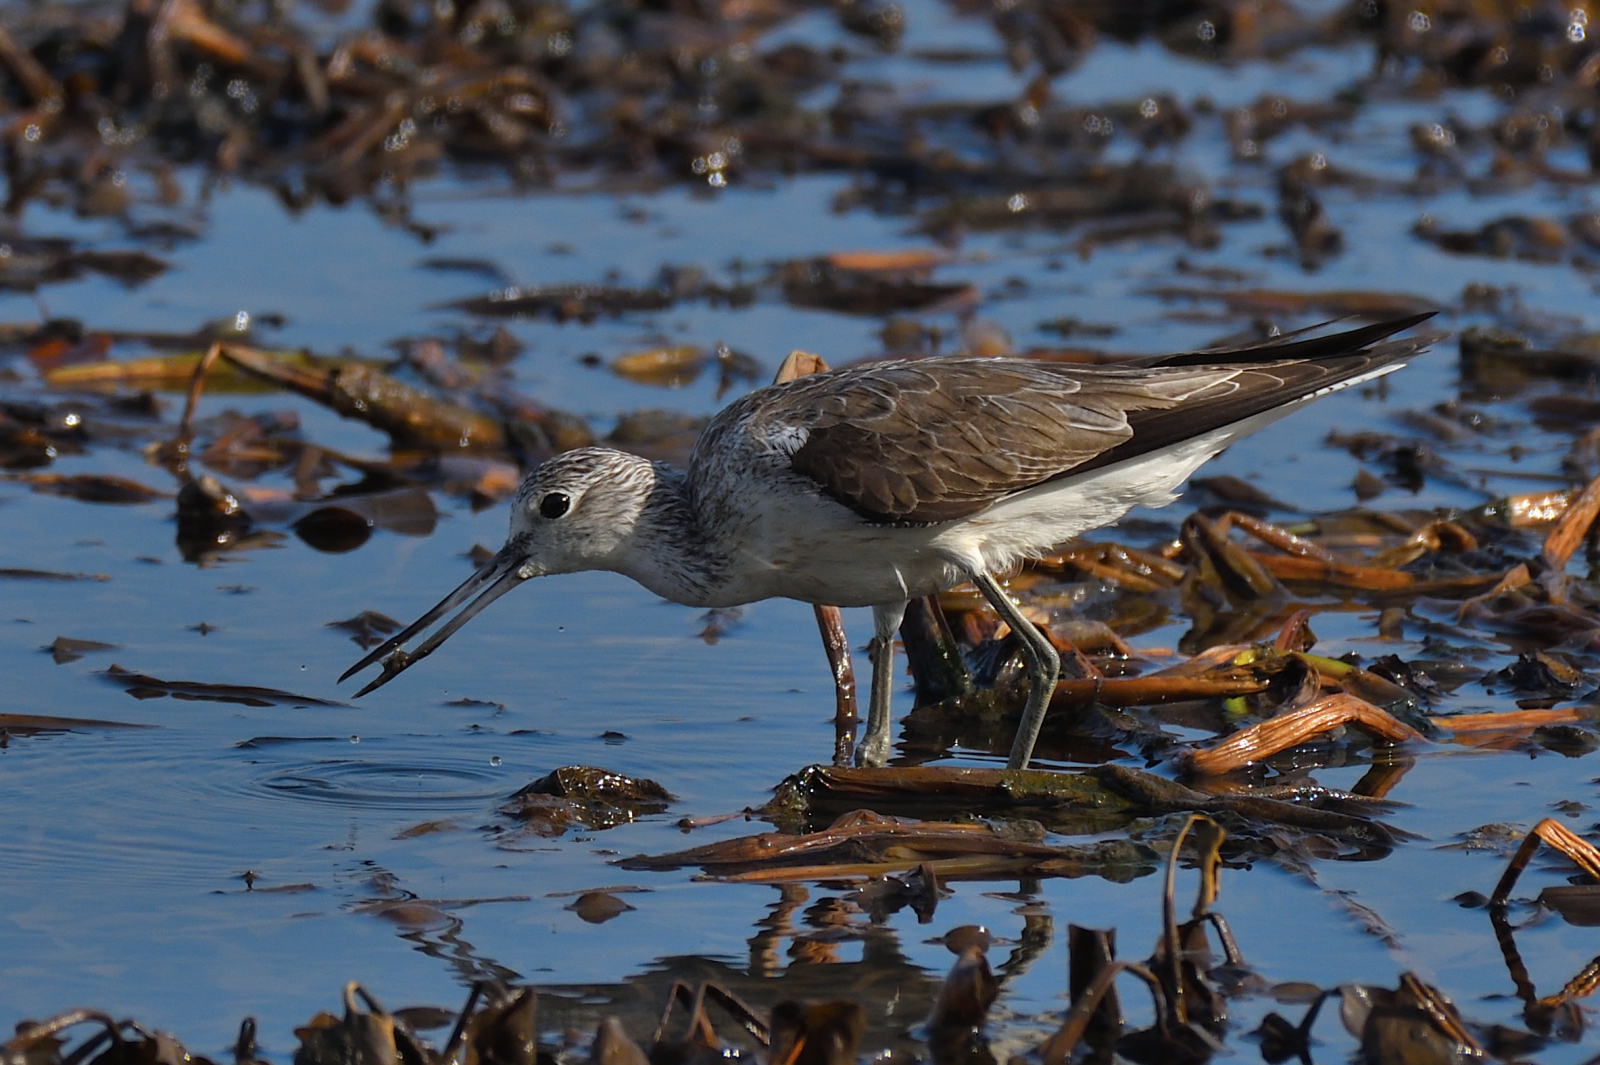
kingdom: Animalia
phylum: Chordata
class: Aves
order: Charadriiformes
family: Scolopacidae
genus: Tringa
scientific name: Tringa nebularia
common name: Common greenshank
